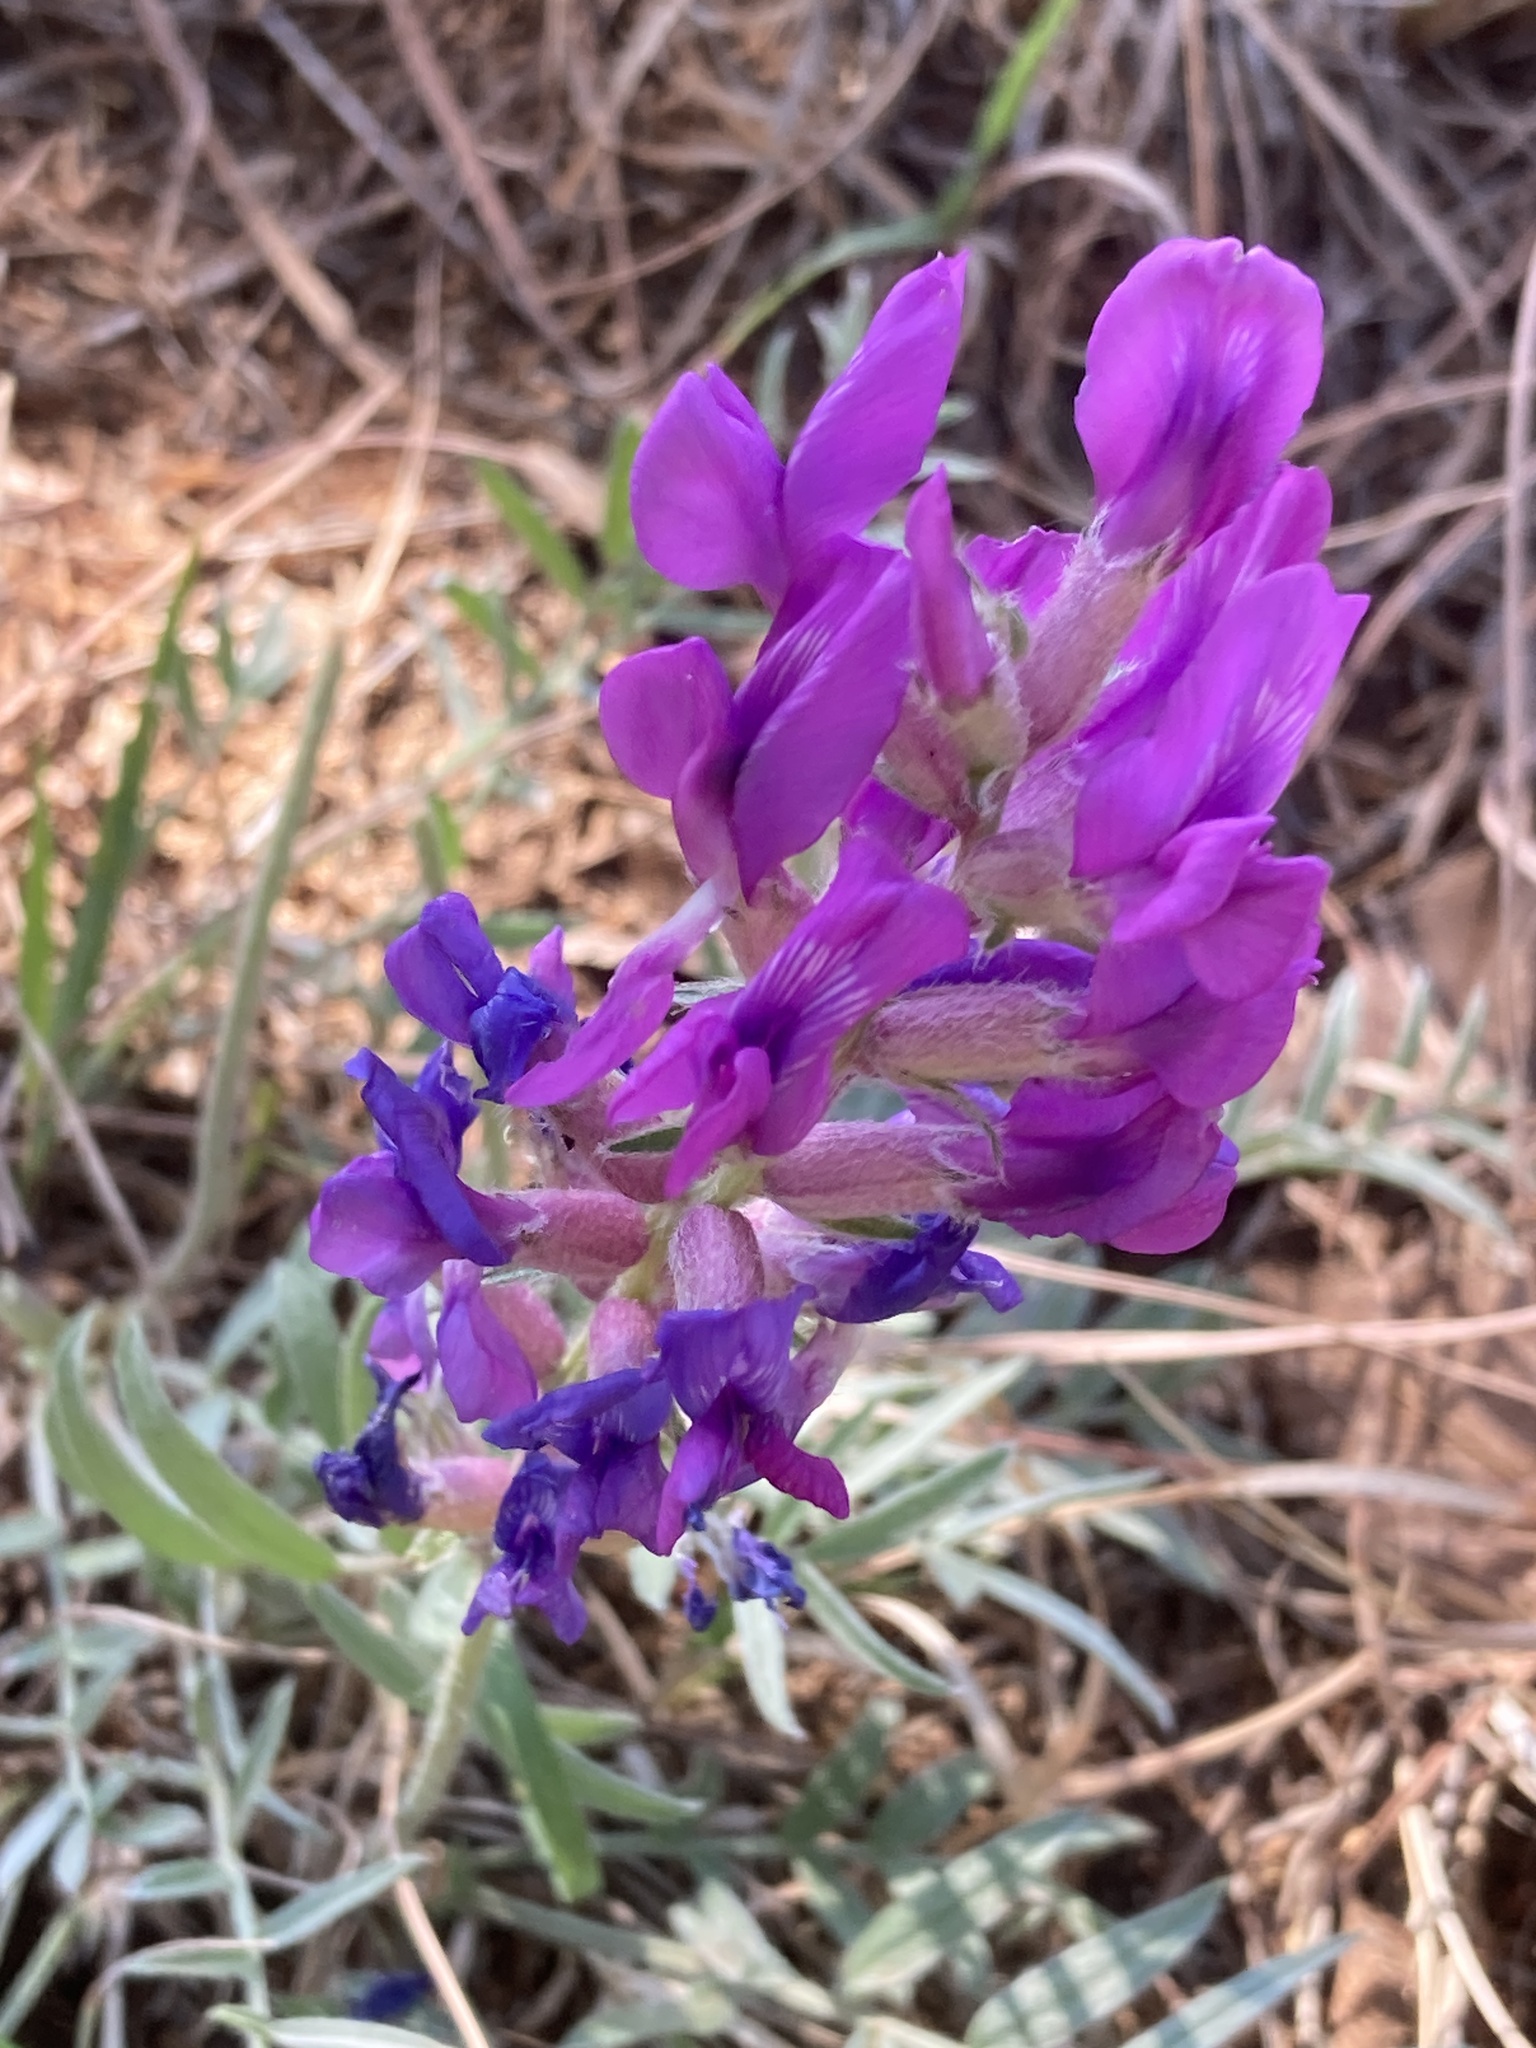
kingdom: Plantae
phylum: Tracheophyta
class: Magnoliopsida
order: Fabales
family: Fabaceae
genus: Oxytropis
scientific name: Oxytropis lambertii
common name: Purple locoweed
